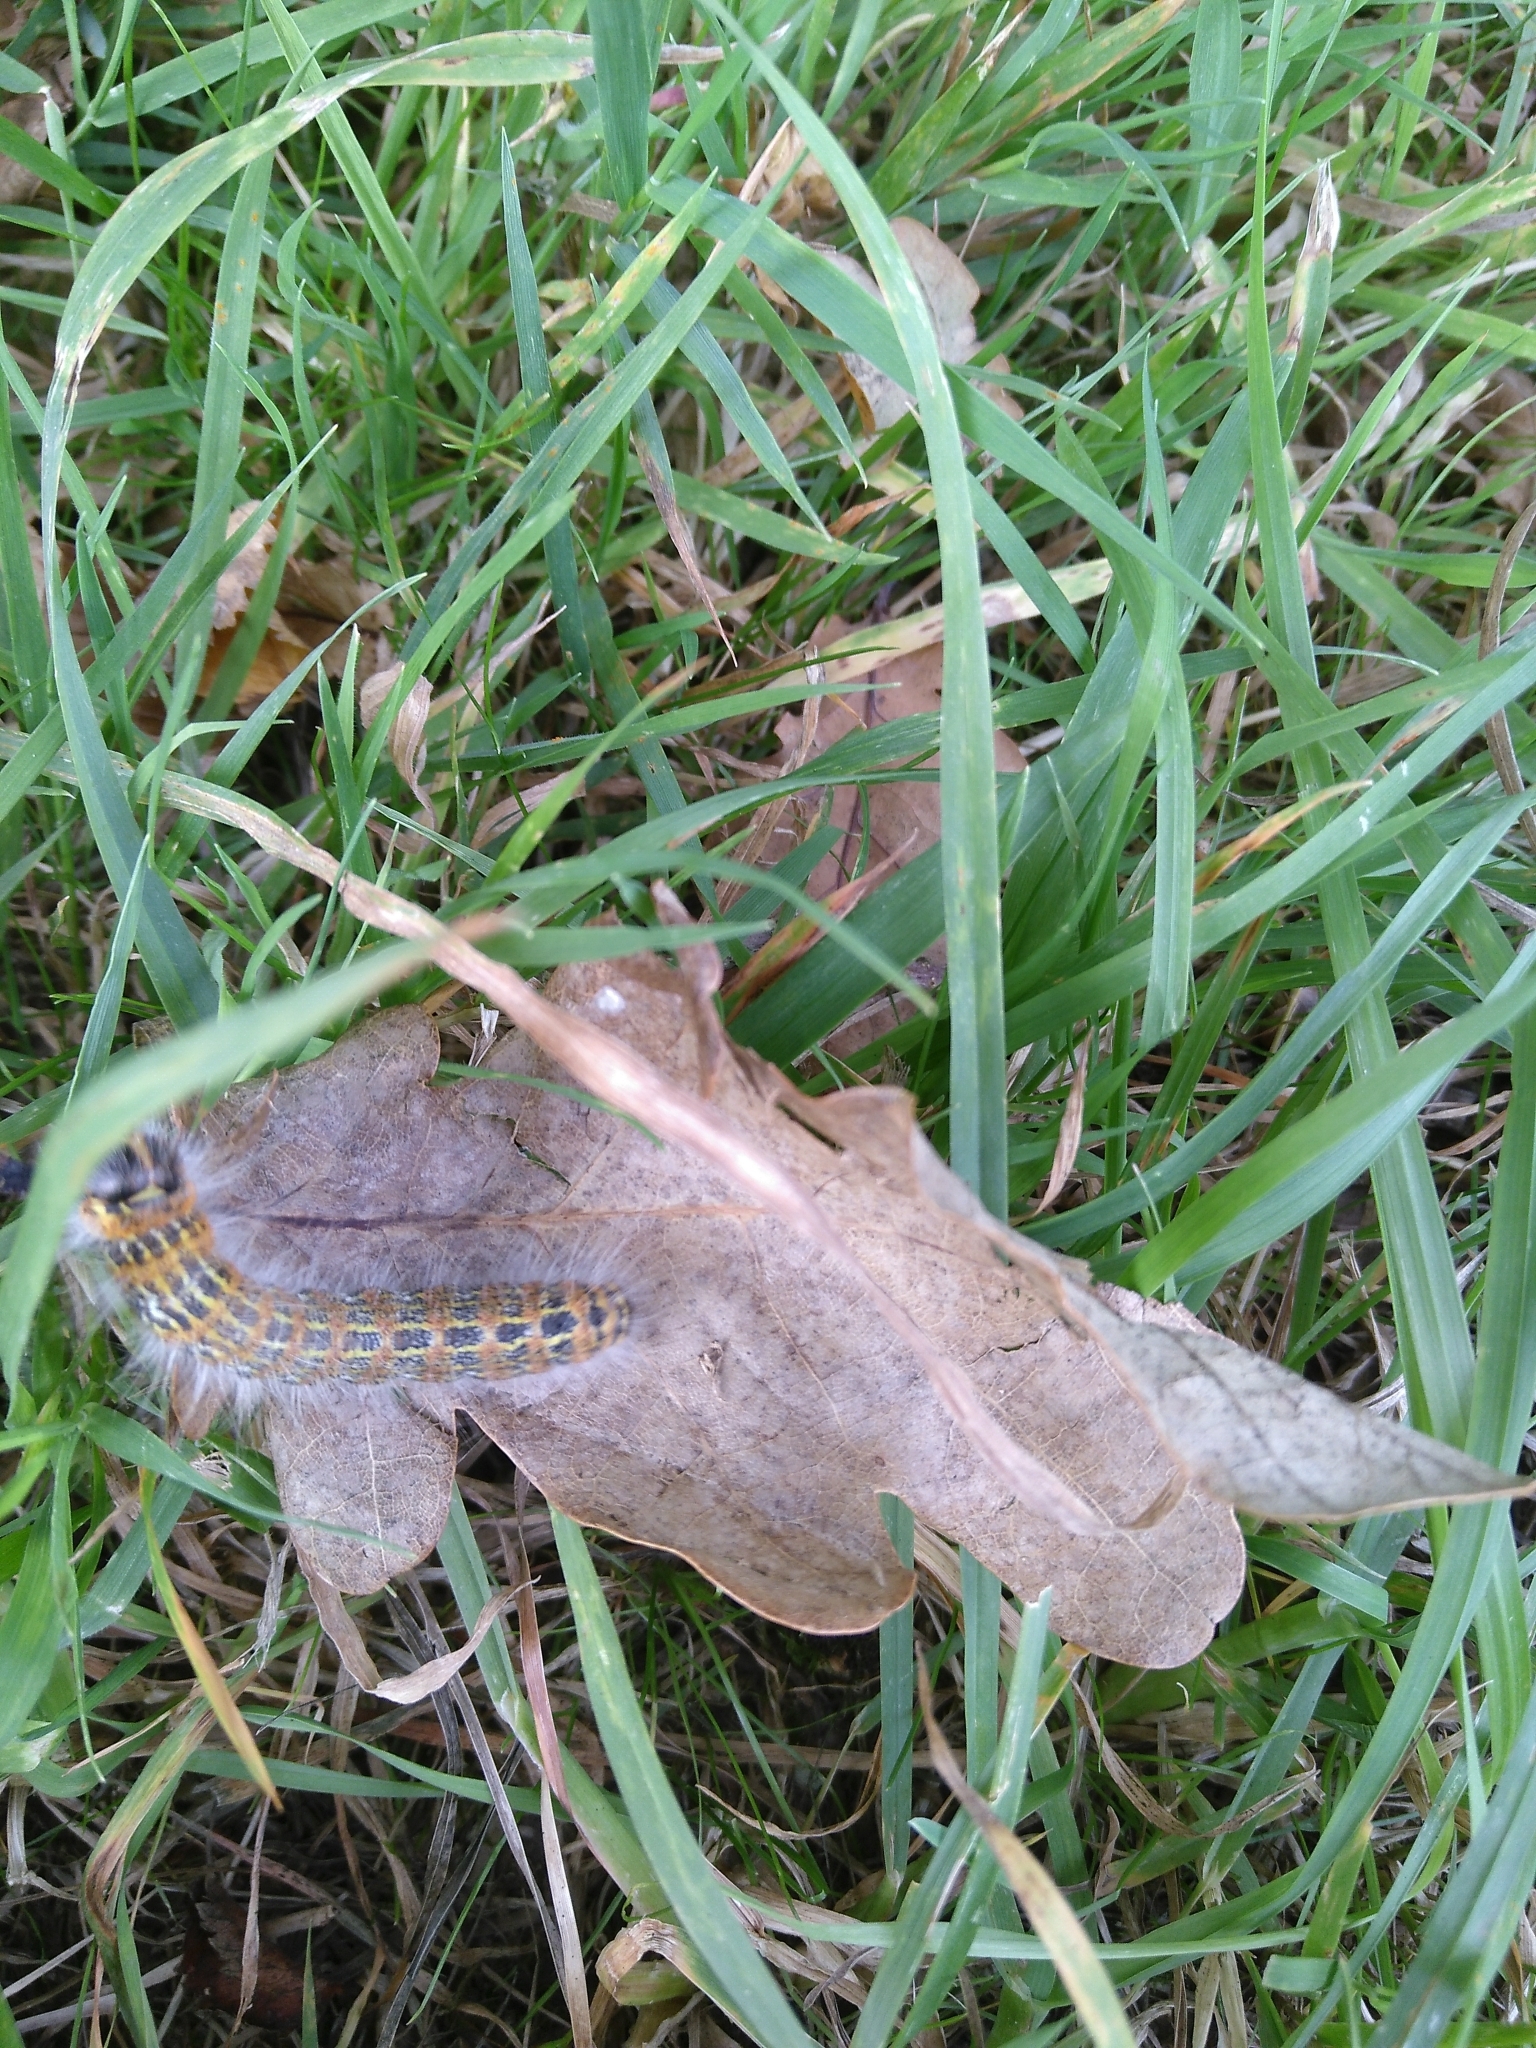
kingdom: Animalia
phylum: Arthropoda
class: Insecta
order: Lepidoptera
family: Notodontidae
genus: Phalera
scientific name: Phalera bucephala
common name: Buff-tip
